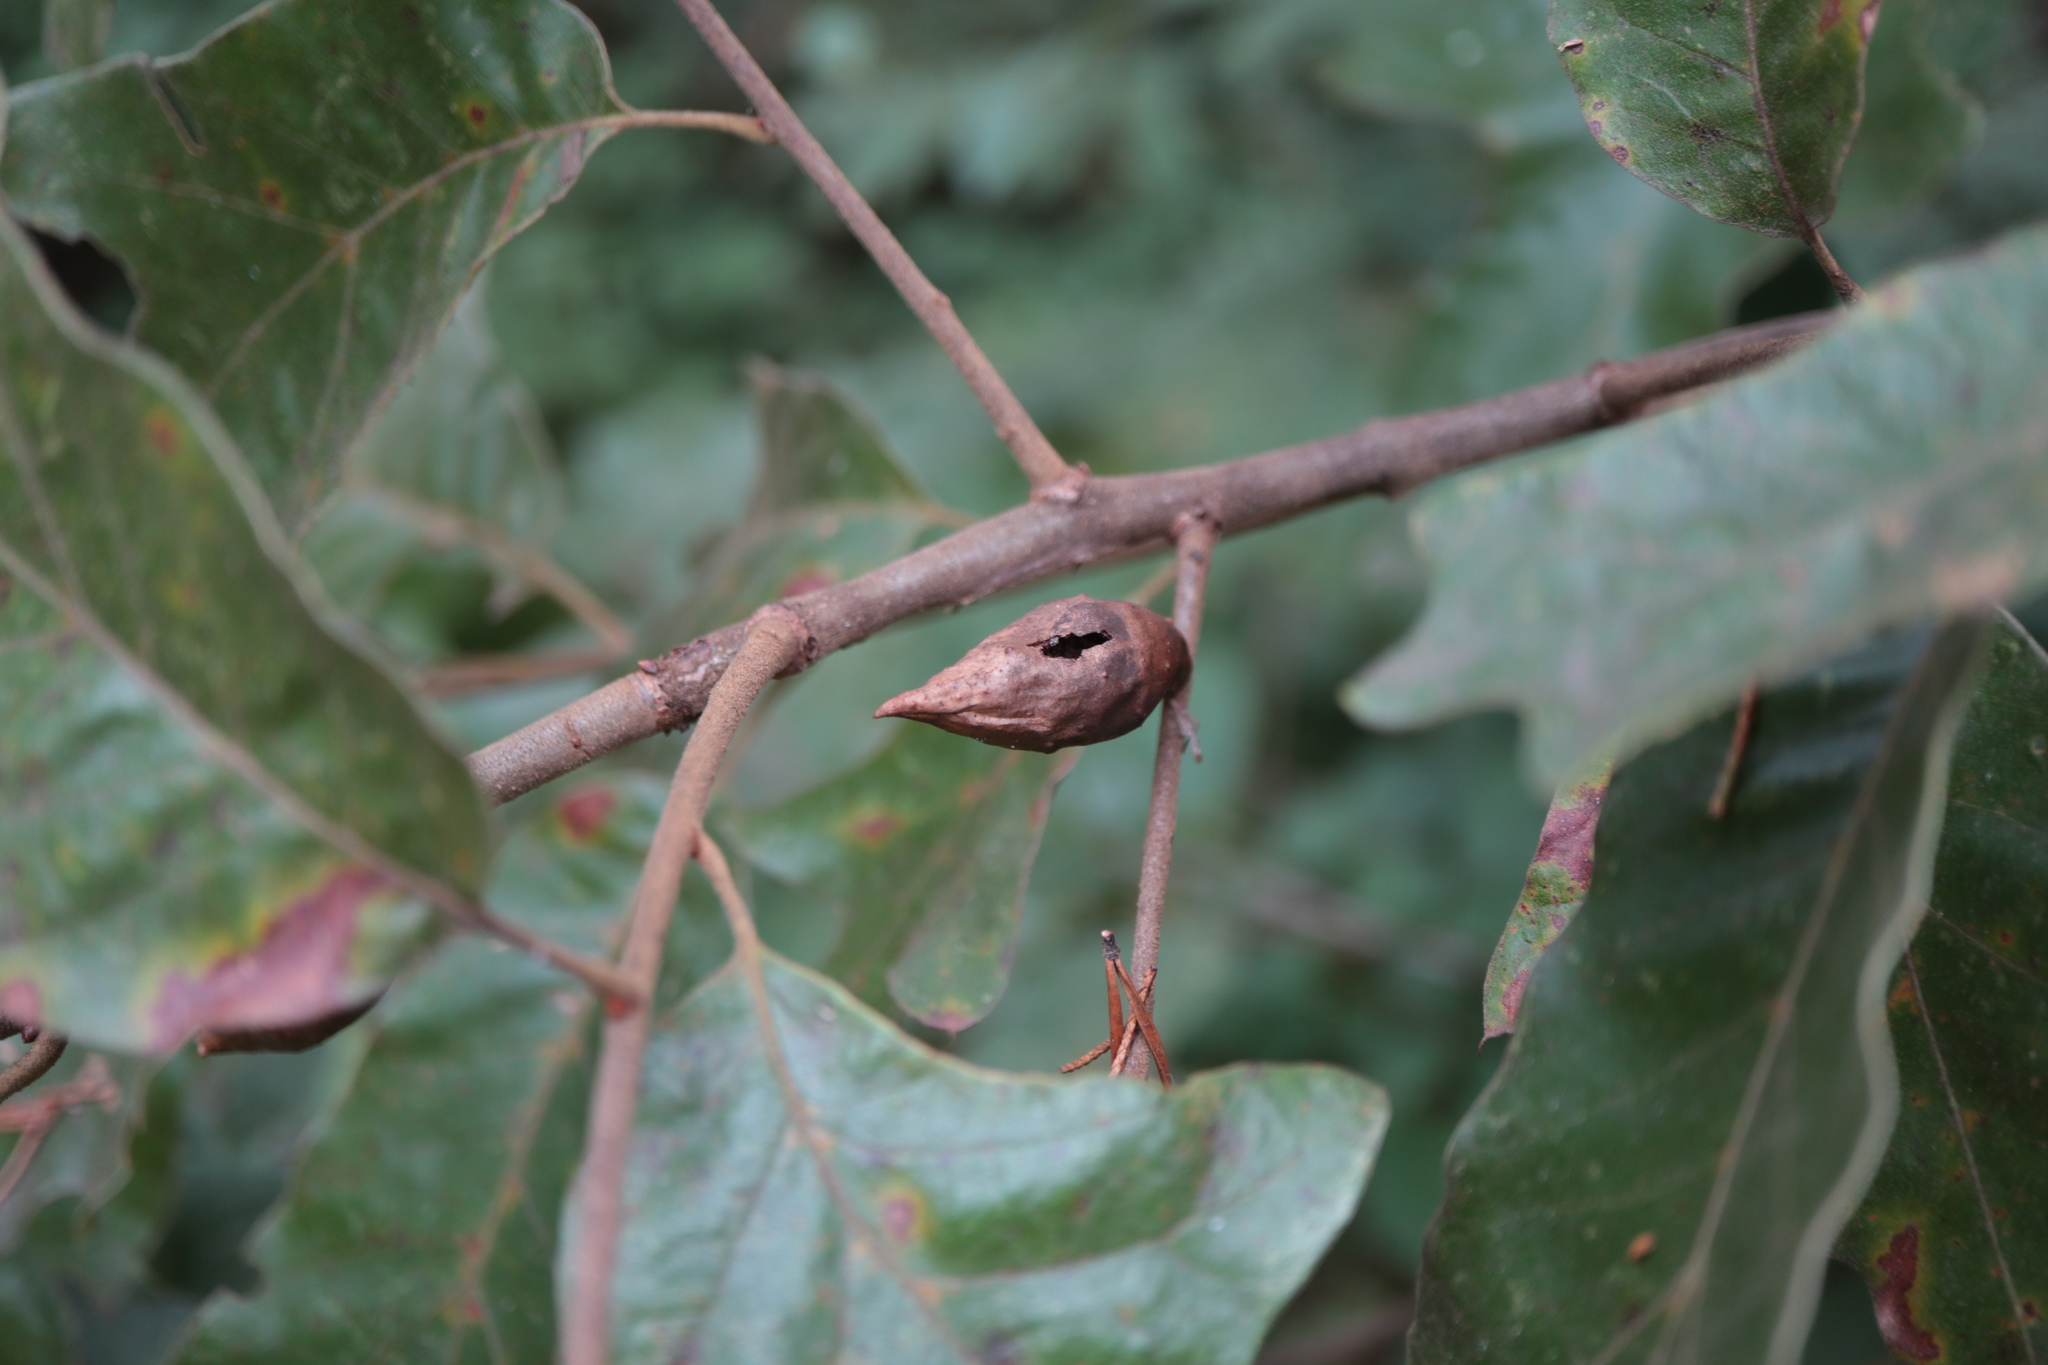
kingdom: Animalia
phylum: Arthropoda
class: Insecta
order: Hymenoptera
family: Cynipidae
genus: Amphibolips
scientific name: Amphibolips
